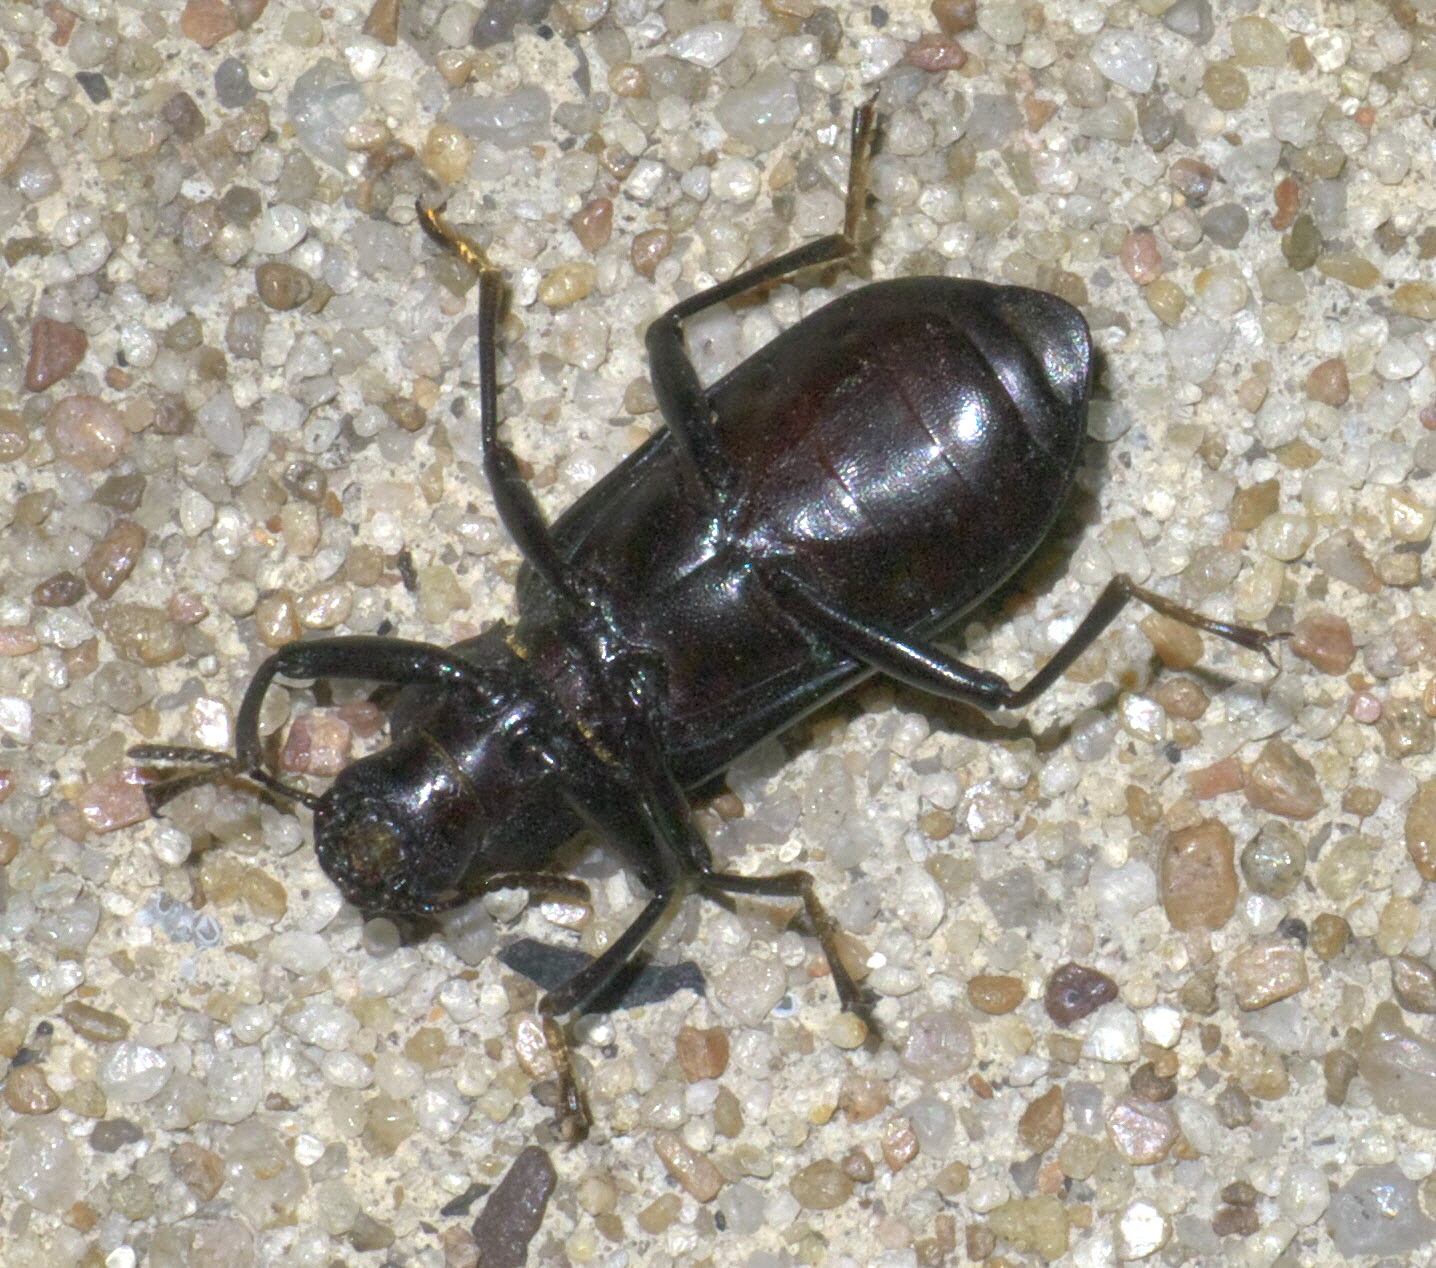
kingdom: Animalia
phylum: Arthropoda
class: Insecta
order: Coleoptera
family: Tenebrionidae
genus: Alobates
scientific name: Alobates pensylvanicus
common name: False mealworm beetle
